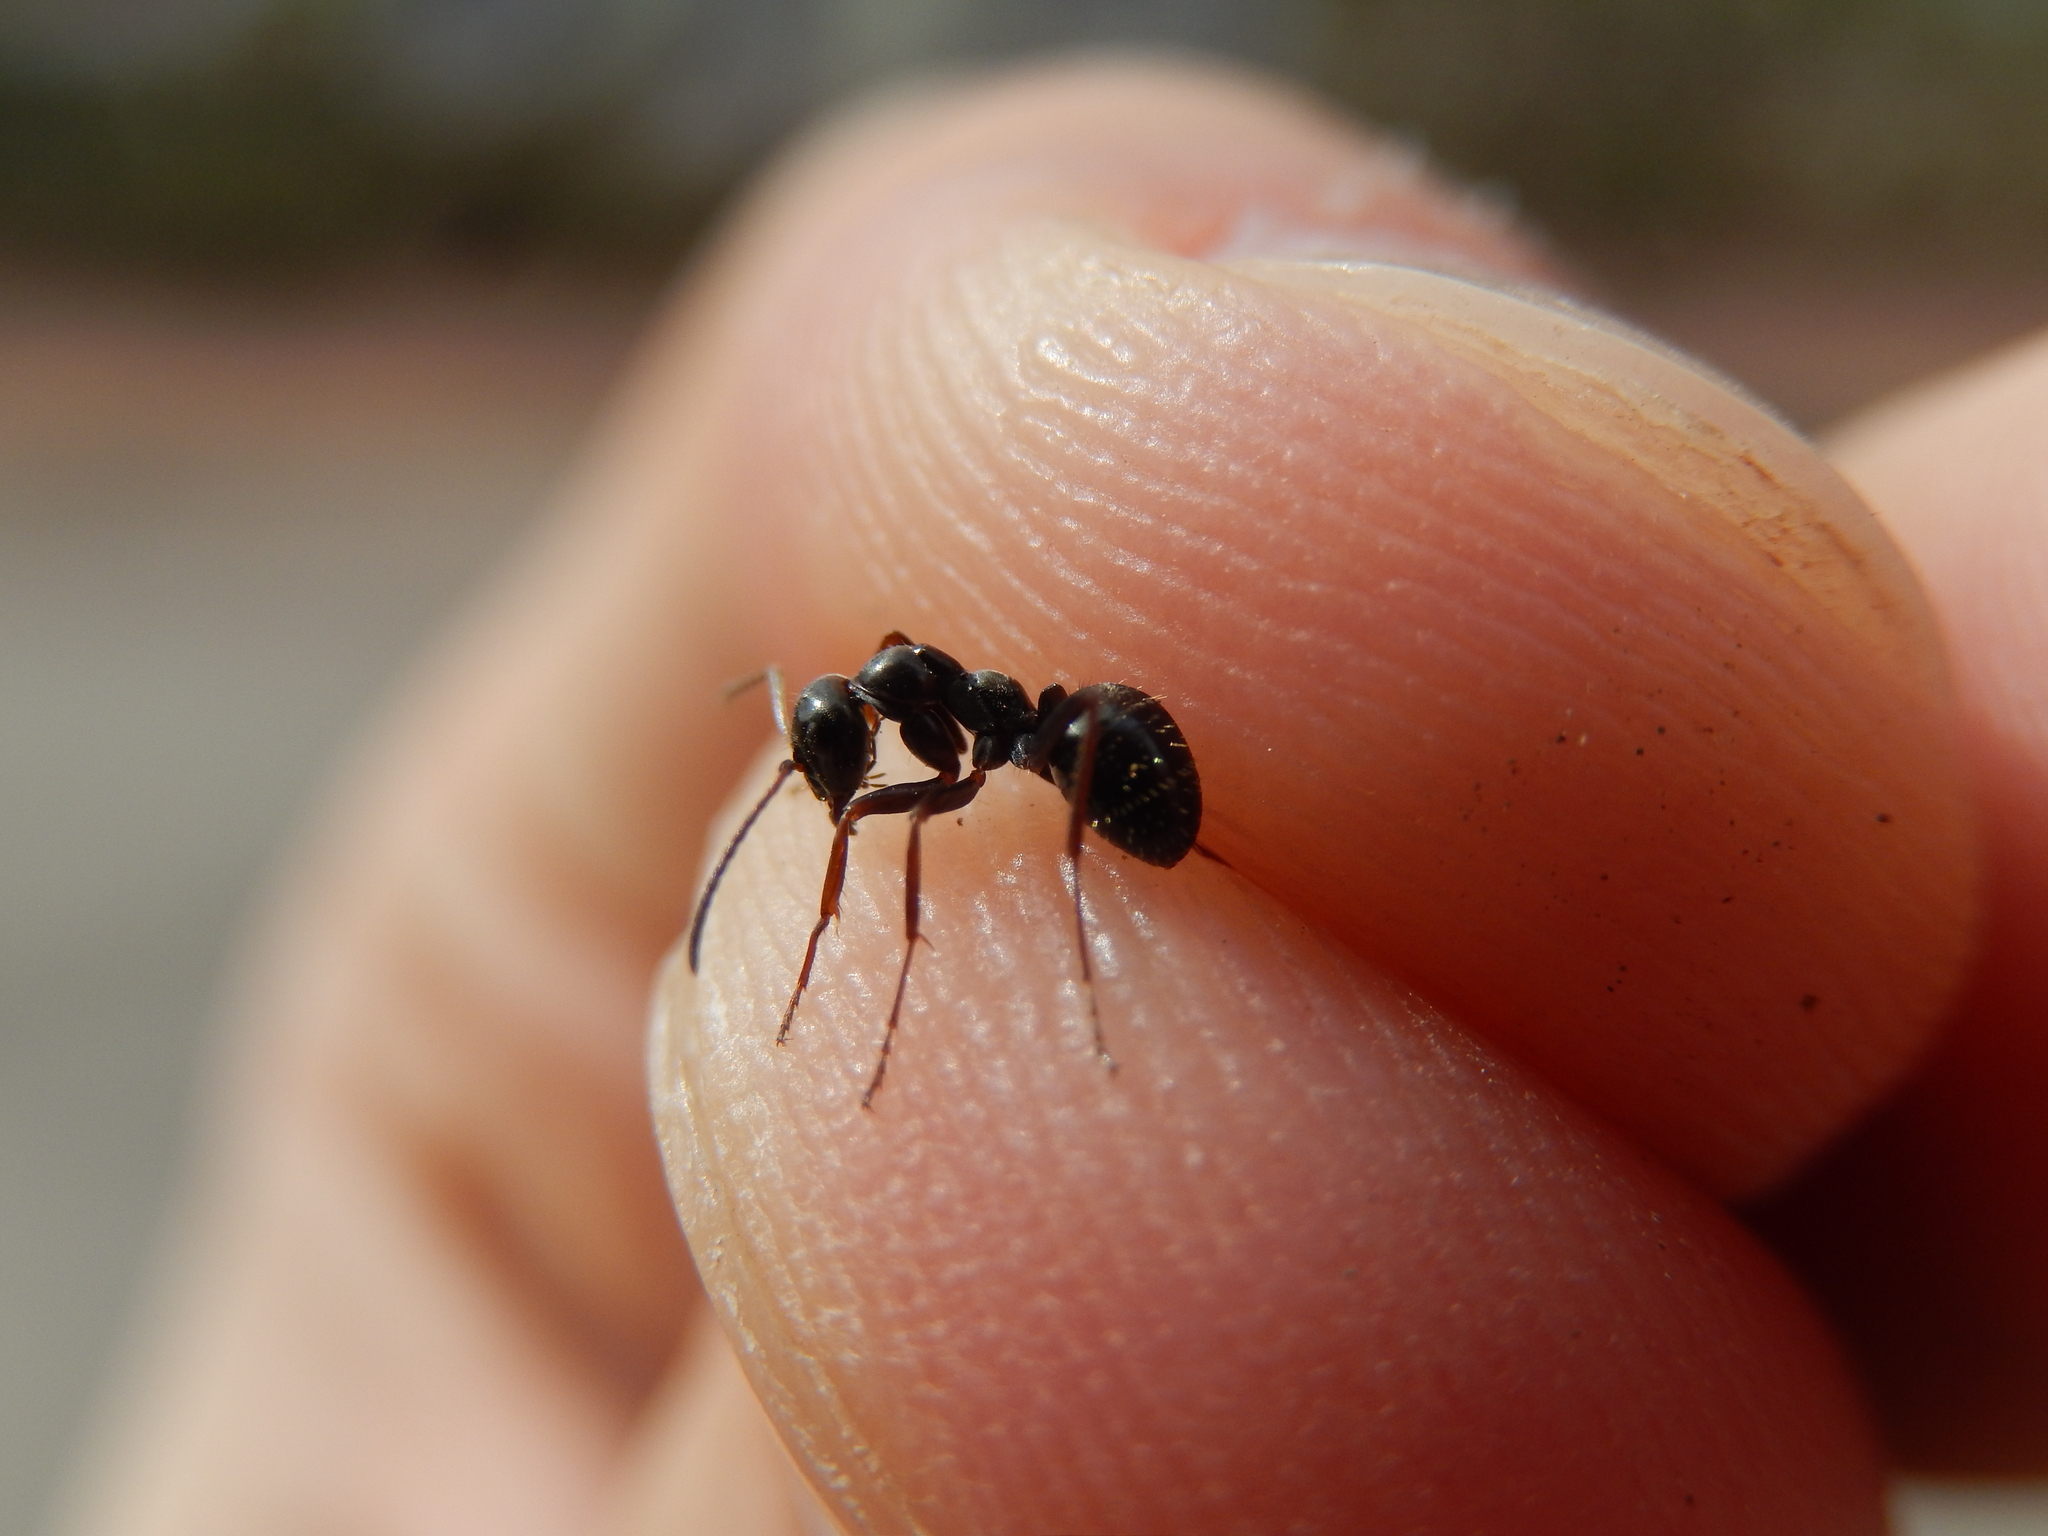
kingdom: Animalia
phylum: Arthropoda
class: Insecta
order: Hymenoptera
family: Formicidae
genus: Formica
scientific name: Formica gagates
